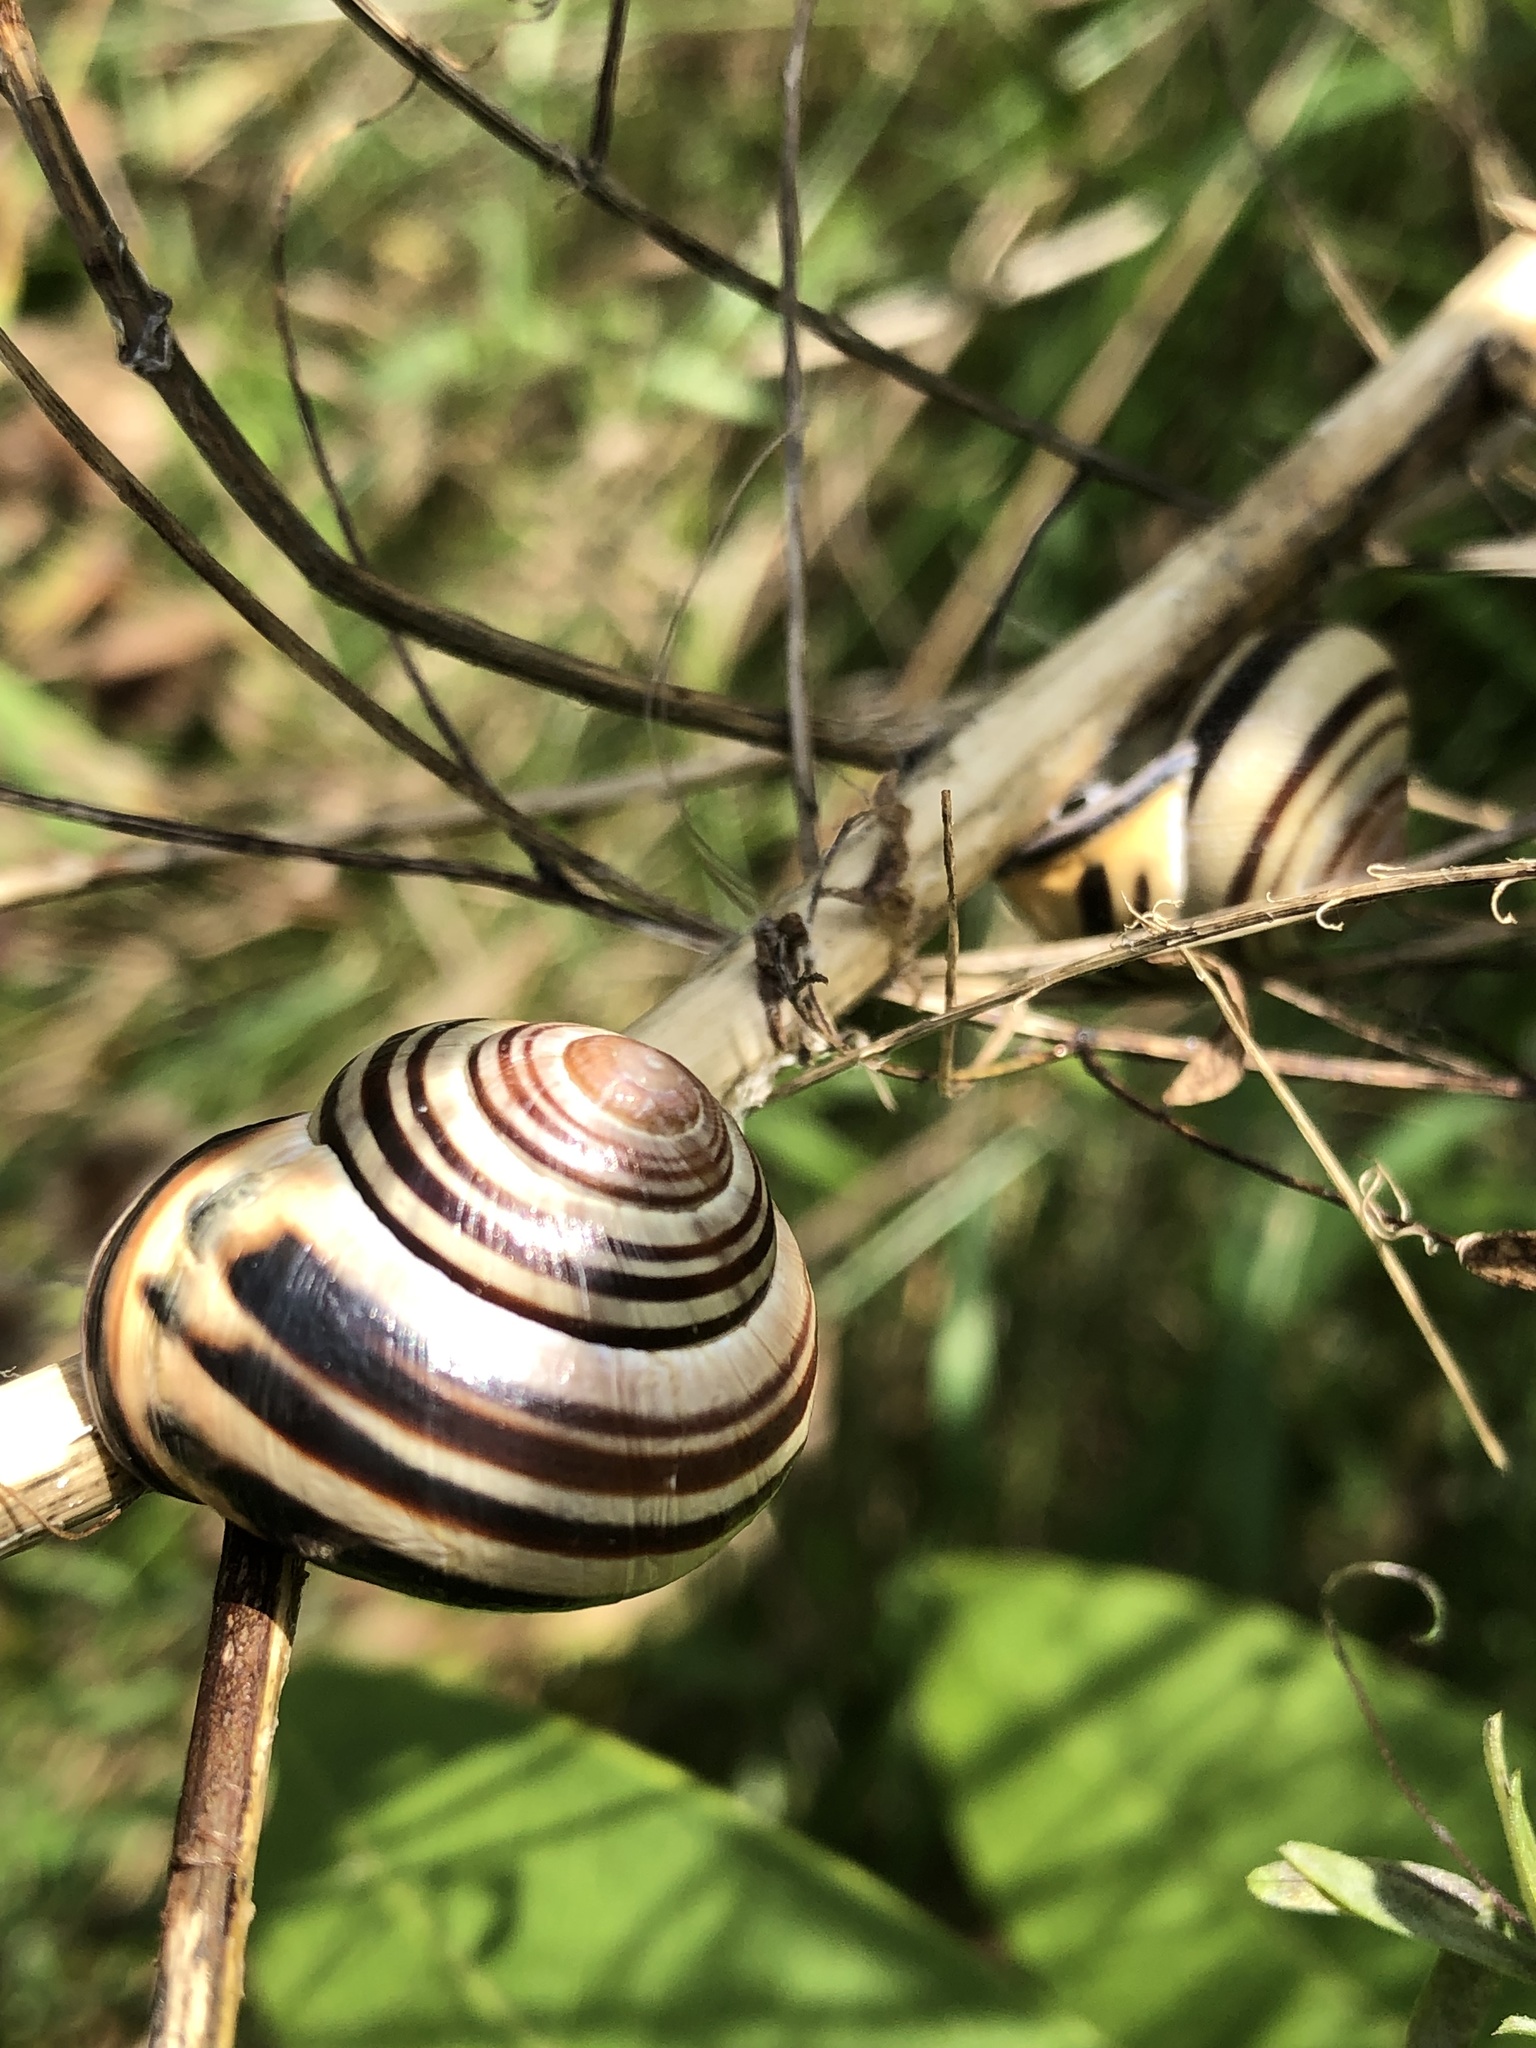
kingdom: Animalia
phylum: Mollusca
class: Gastropoda
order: Stylommatophora
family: Helicidae
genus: Cepaea
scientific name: Cepaea nemoralis
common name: Grovesnail
